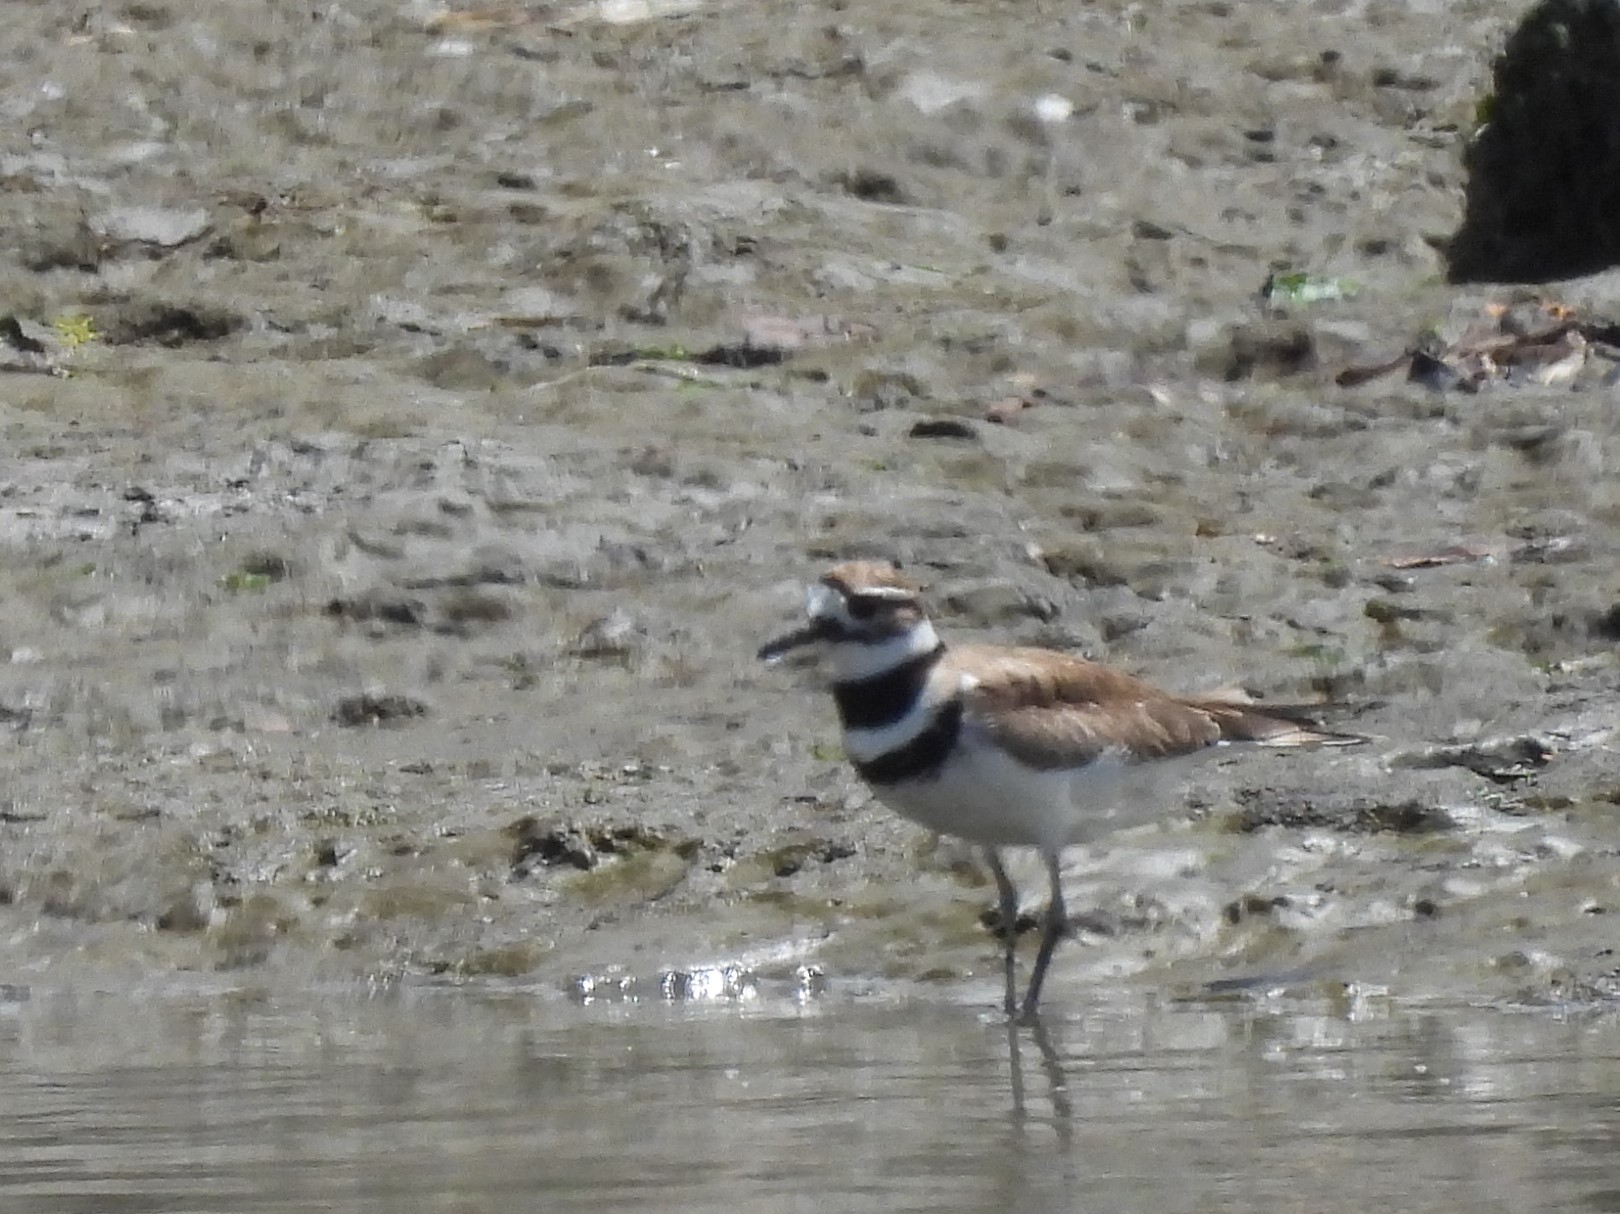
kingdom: Animalia
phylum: Chordata
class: Aves
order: Charadriiformes
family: Charadriidae
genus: Charadrius
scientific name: Charadrius vociferus
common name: Killdeer
